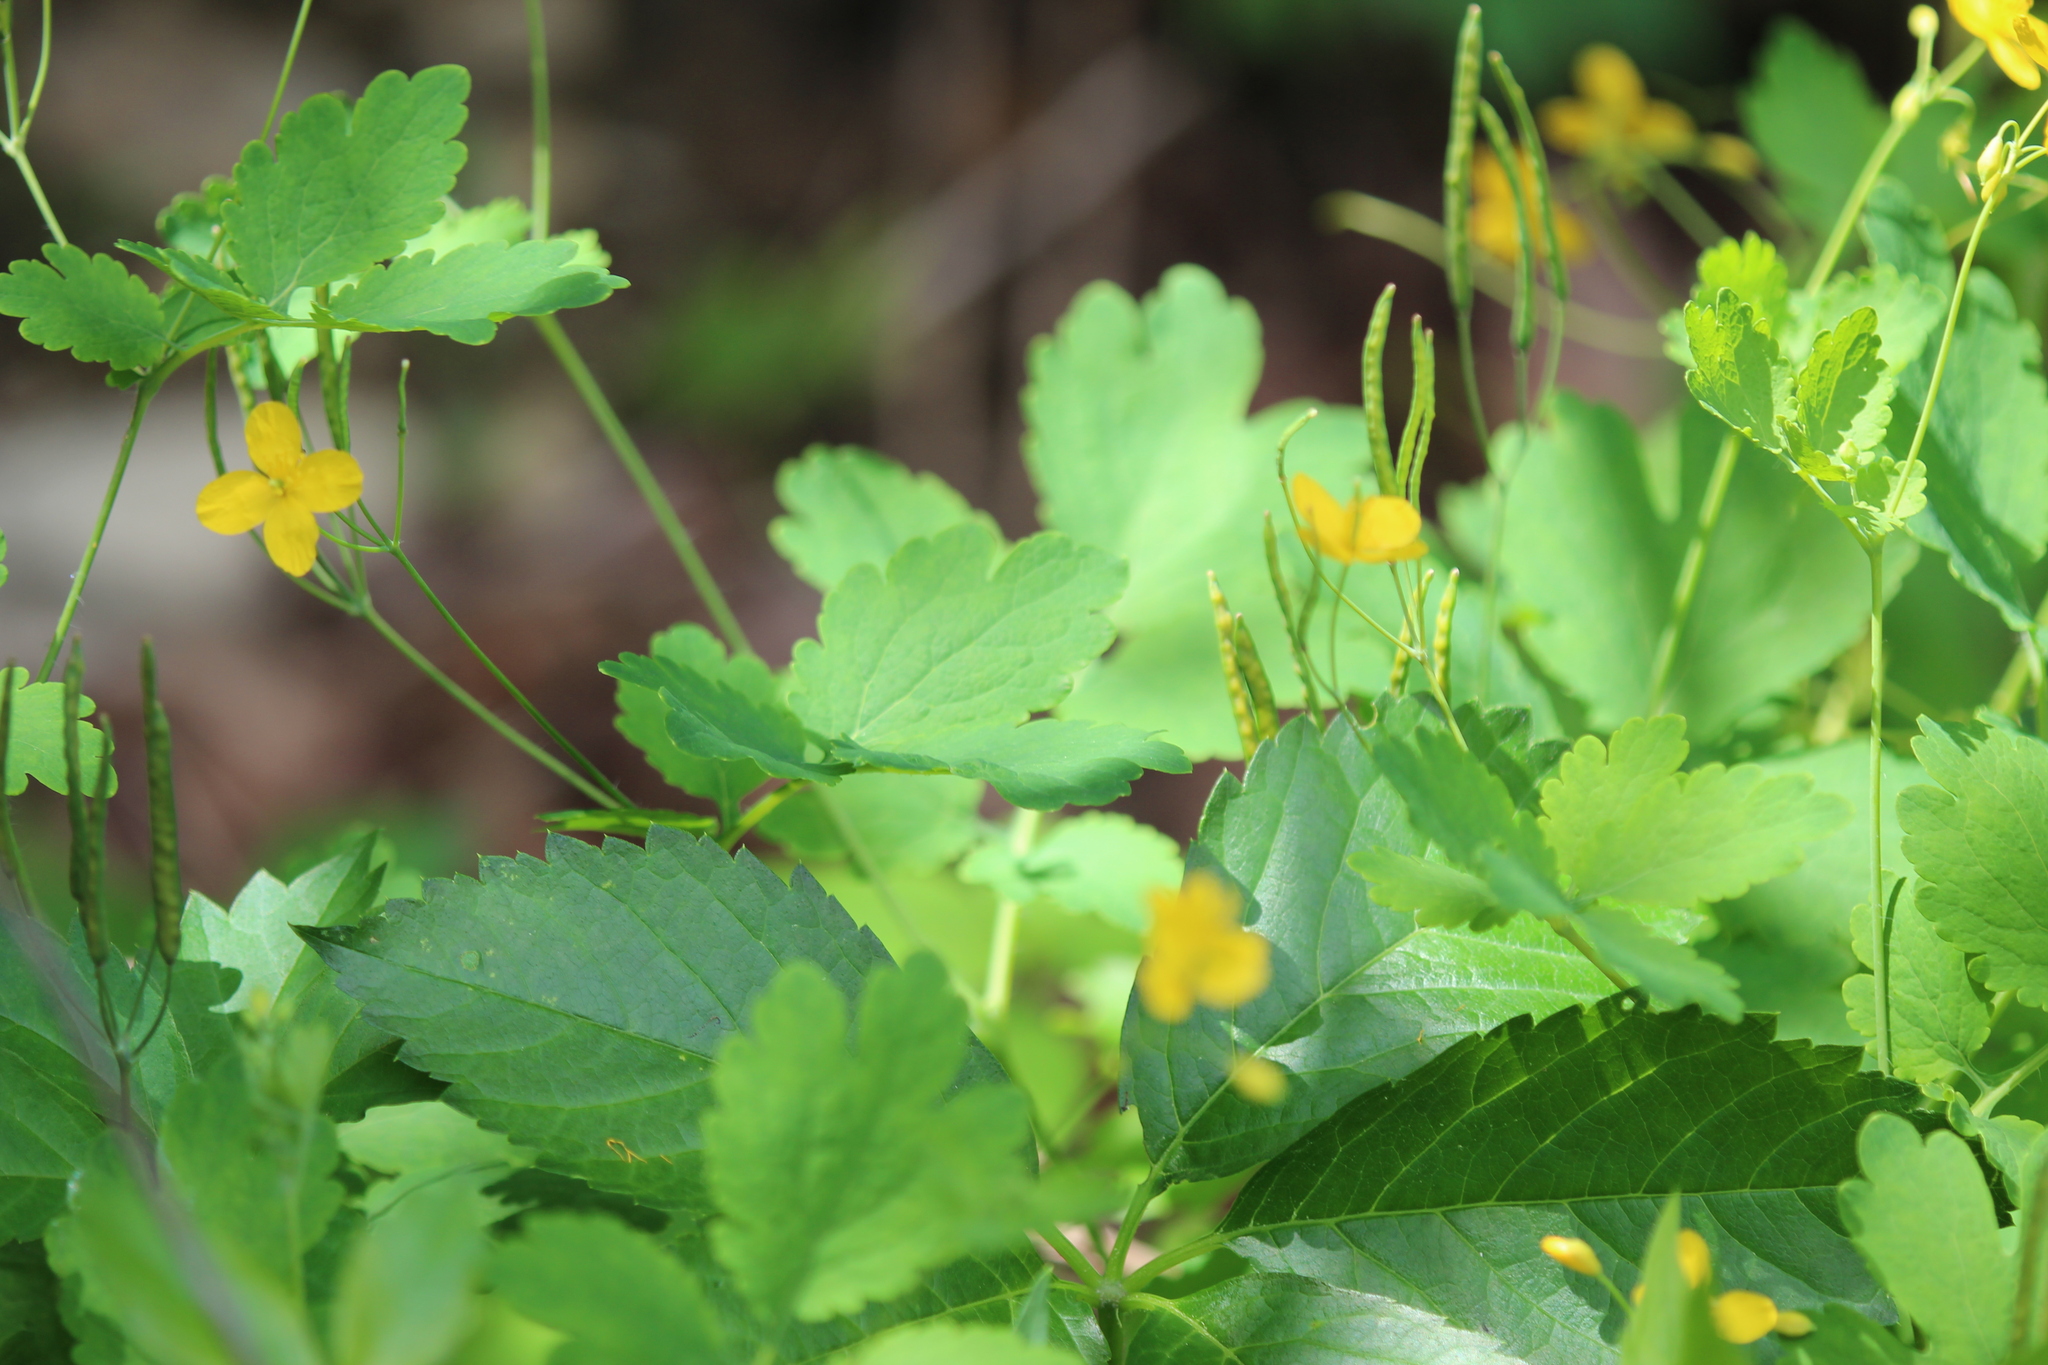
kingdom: Plantae
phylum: Tracheophyta
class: Magnoliopsida
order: Ranunculales
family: Papaveraceae
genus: Chelidonium
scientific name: Chelidonium majus
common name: Greater celandine
